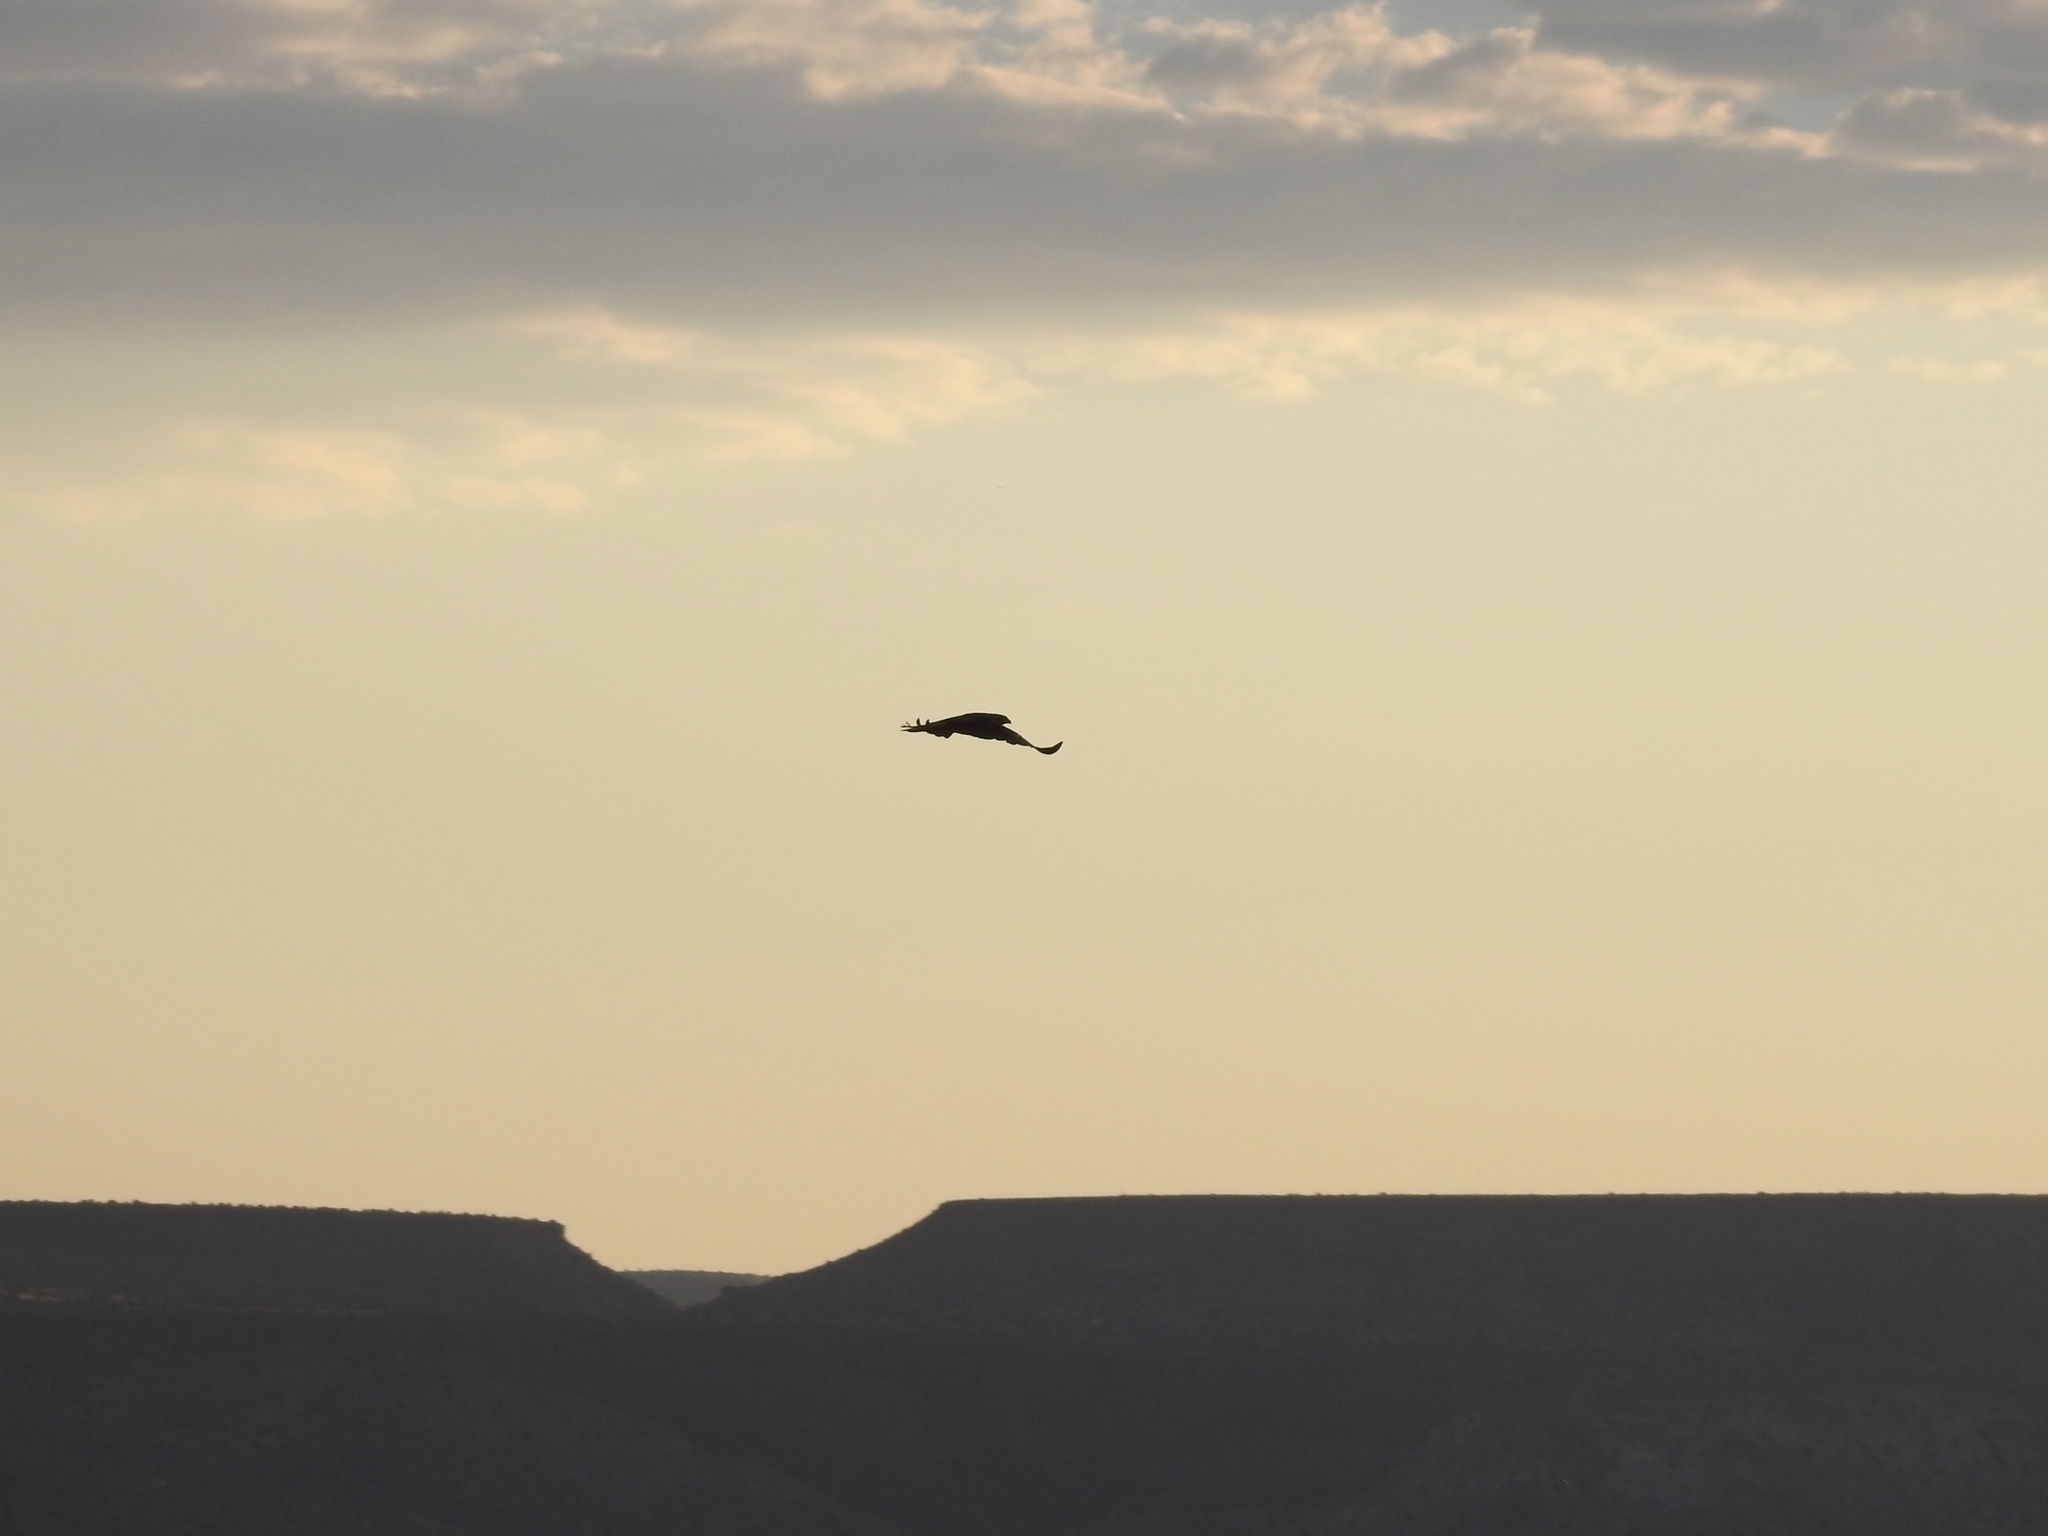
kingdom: Animalia
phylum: Chordata
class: Aves
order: Accipitriformes
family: Accipitridae
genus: Buteo
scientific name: Buteo jamaicensis
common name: Red-tailed hawk
